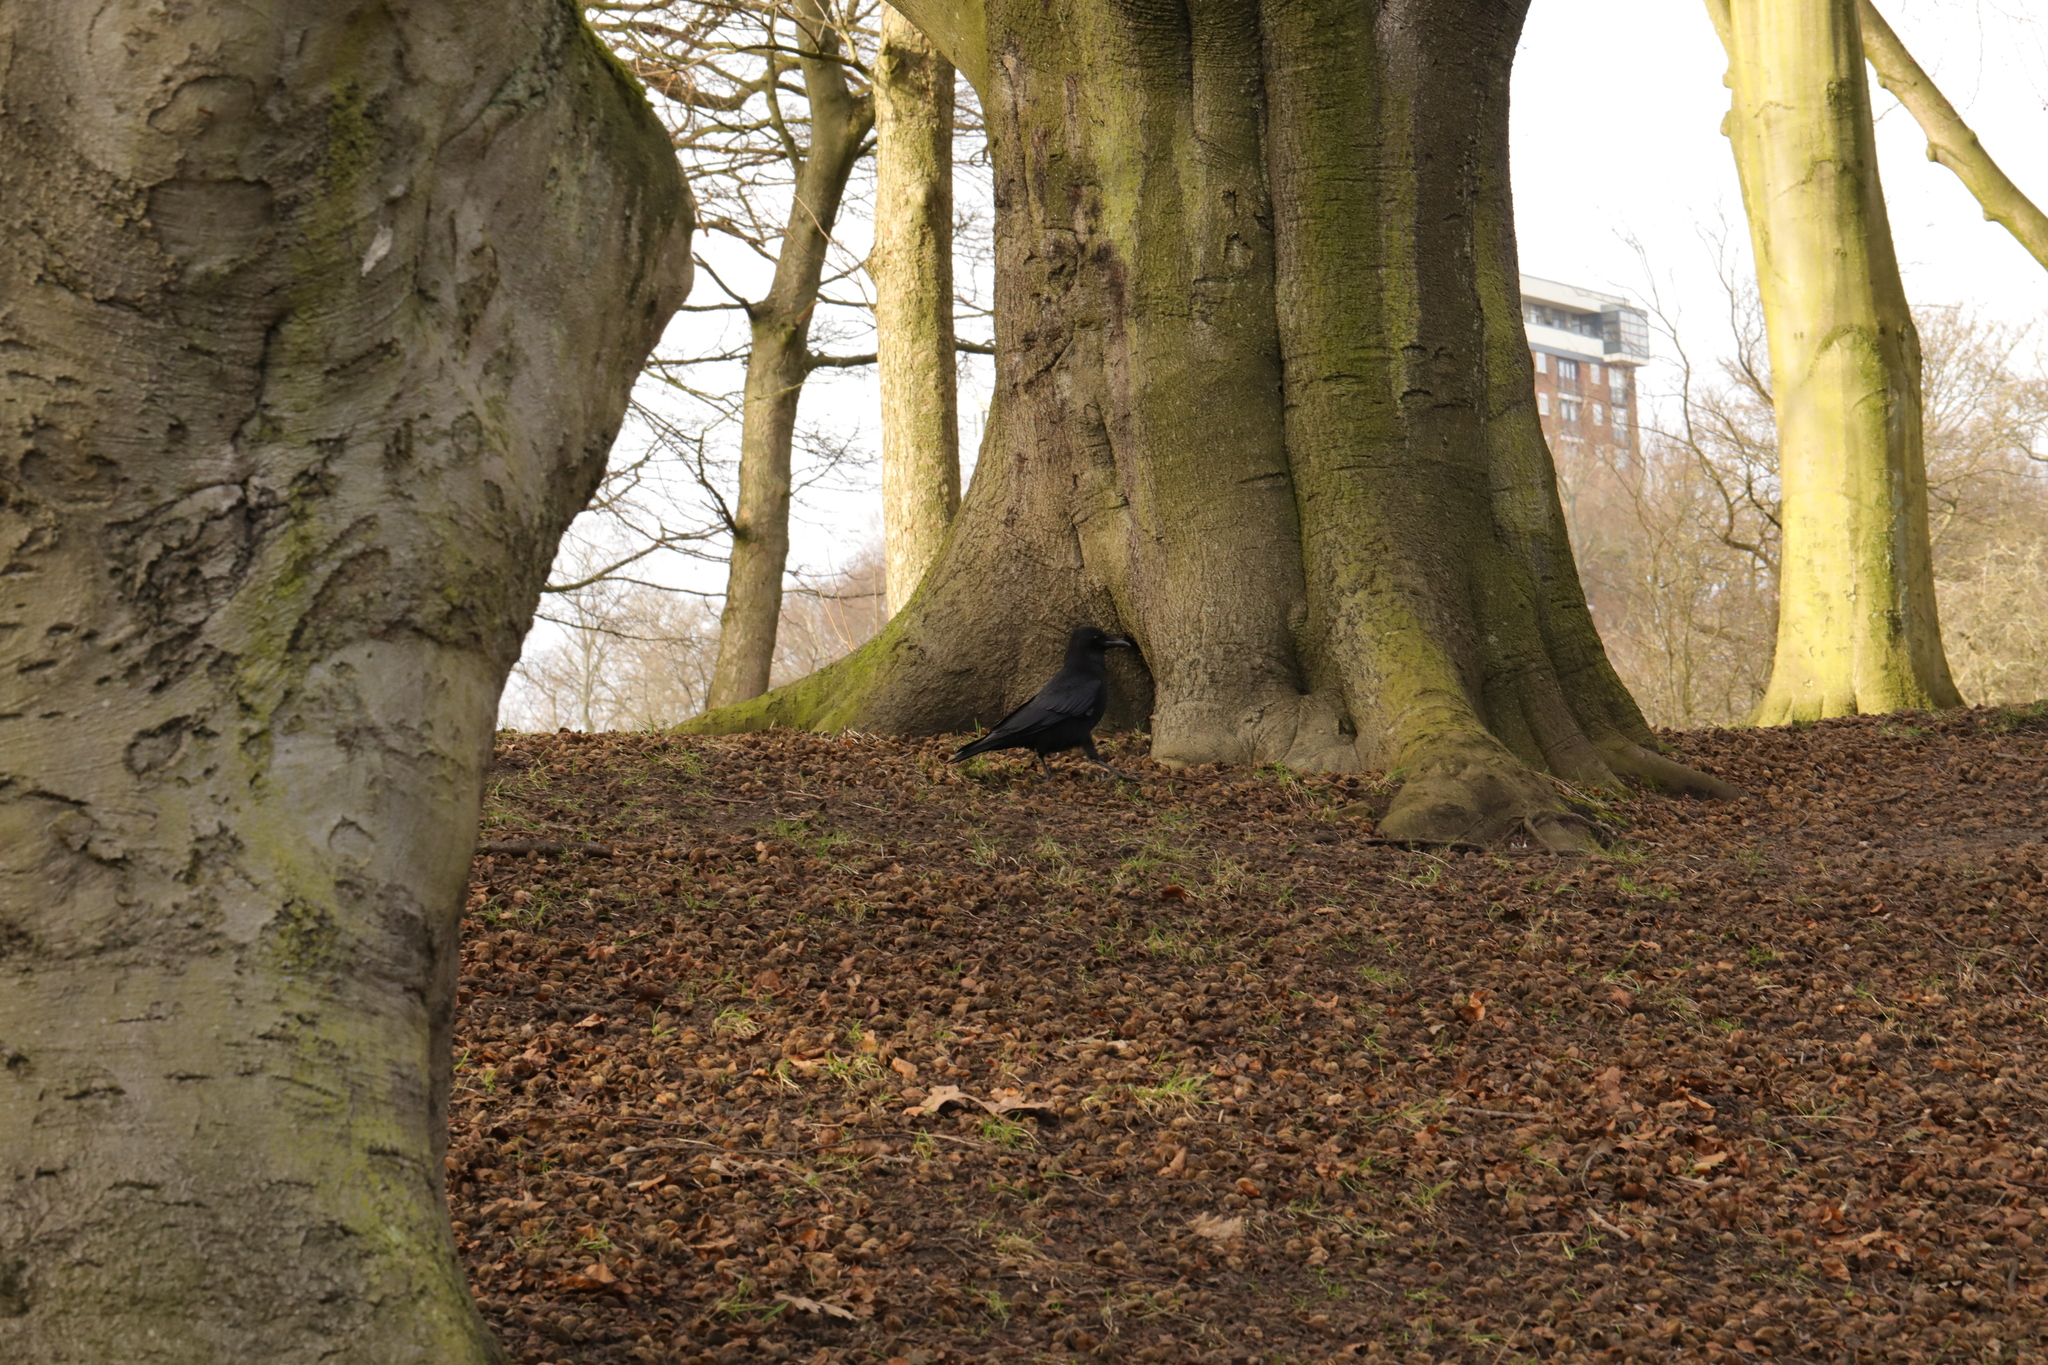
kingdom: Animalia
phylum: Chordata
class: Aves
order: Passeriformes
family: Corvidae
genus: Corvus
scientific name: Corvus corone
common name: Carrion crow
